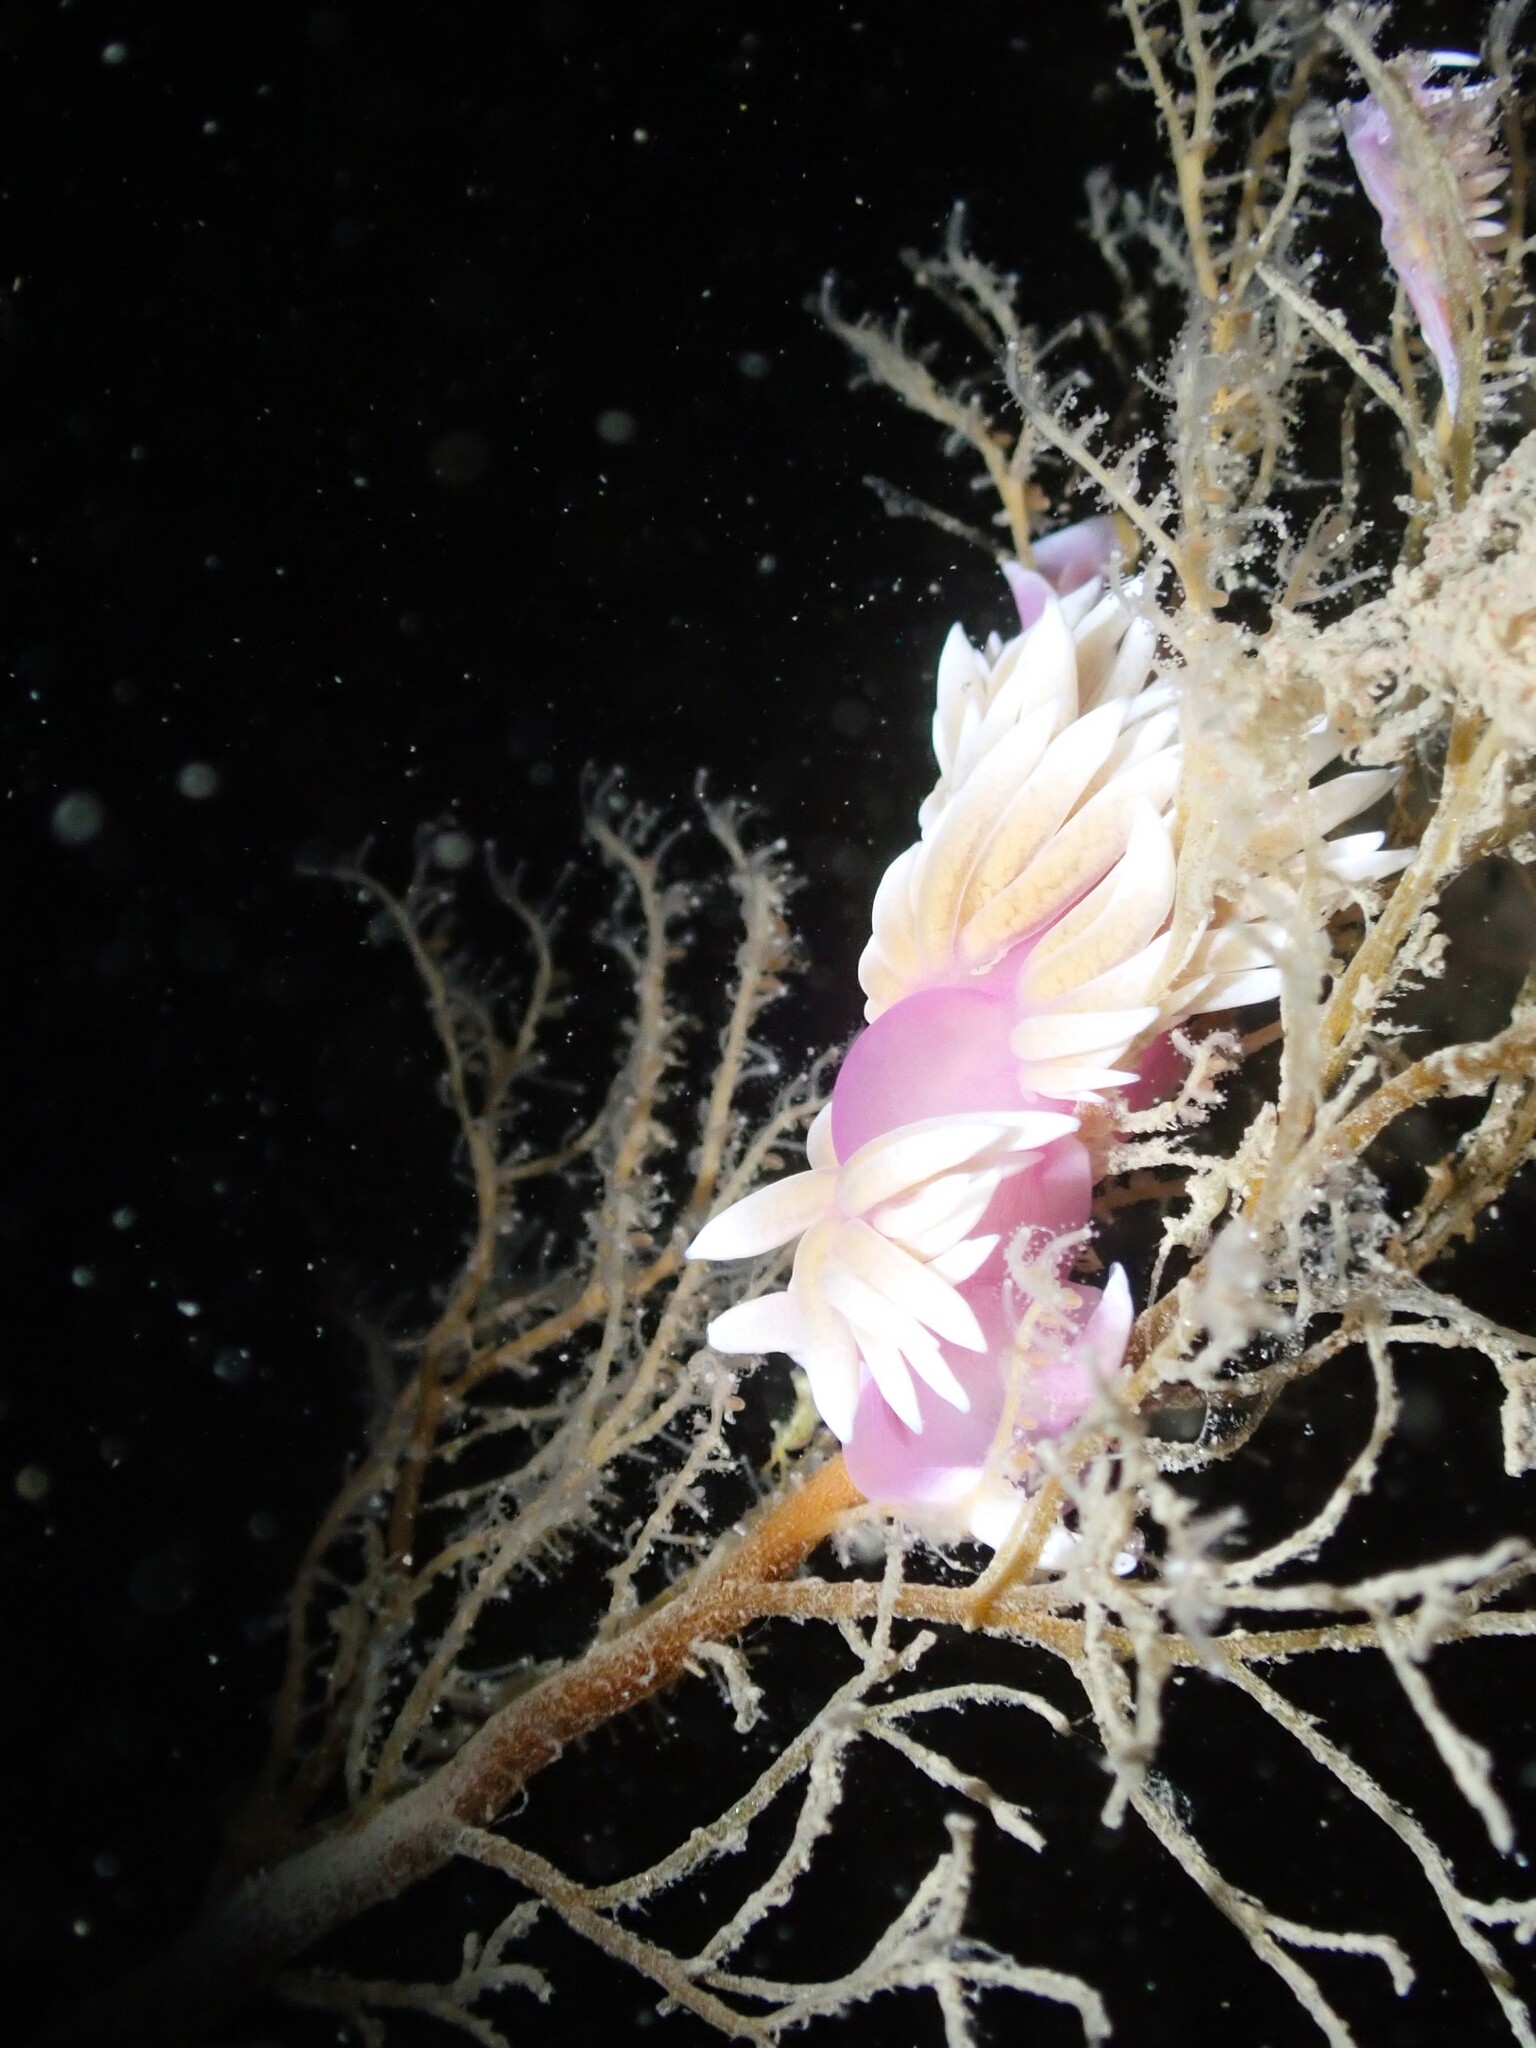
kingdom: Animalia
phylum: Mollusca
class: Gastropoda
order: Nudibranchia
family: Facelinidae
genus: Jason
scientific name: Jason mirabilis
